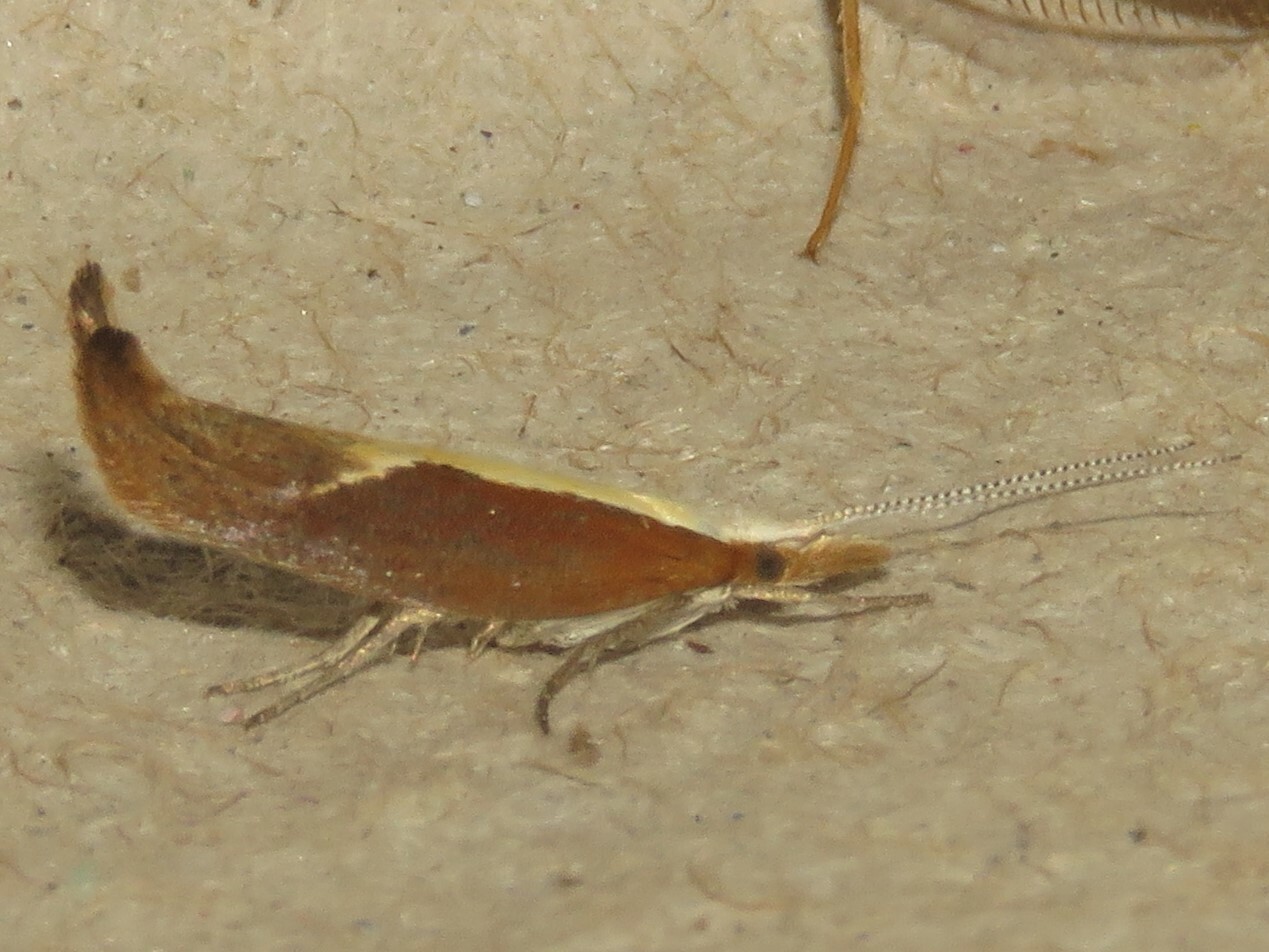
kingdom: Animalia
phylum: Arthropoda
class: Insecta
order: Lepidoptera
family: Ypsolophidae
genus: Ypsolopha
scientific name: Ypsolopha dentella
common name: Honeysuckle moth
